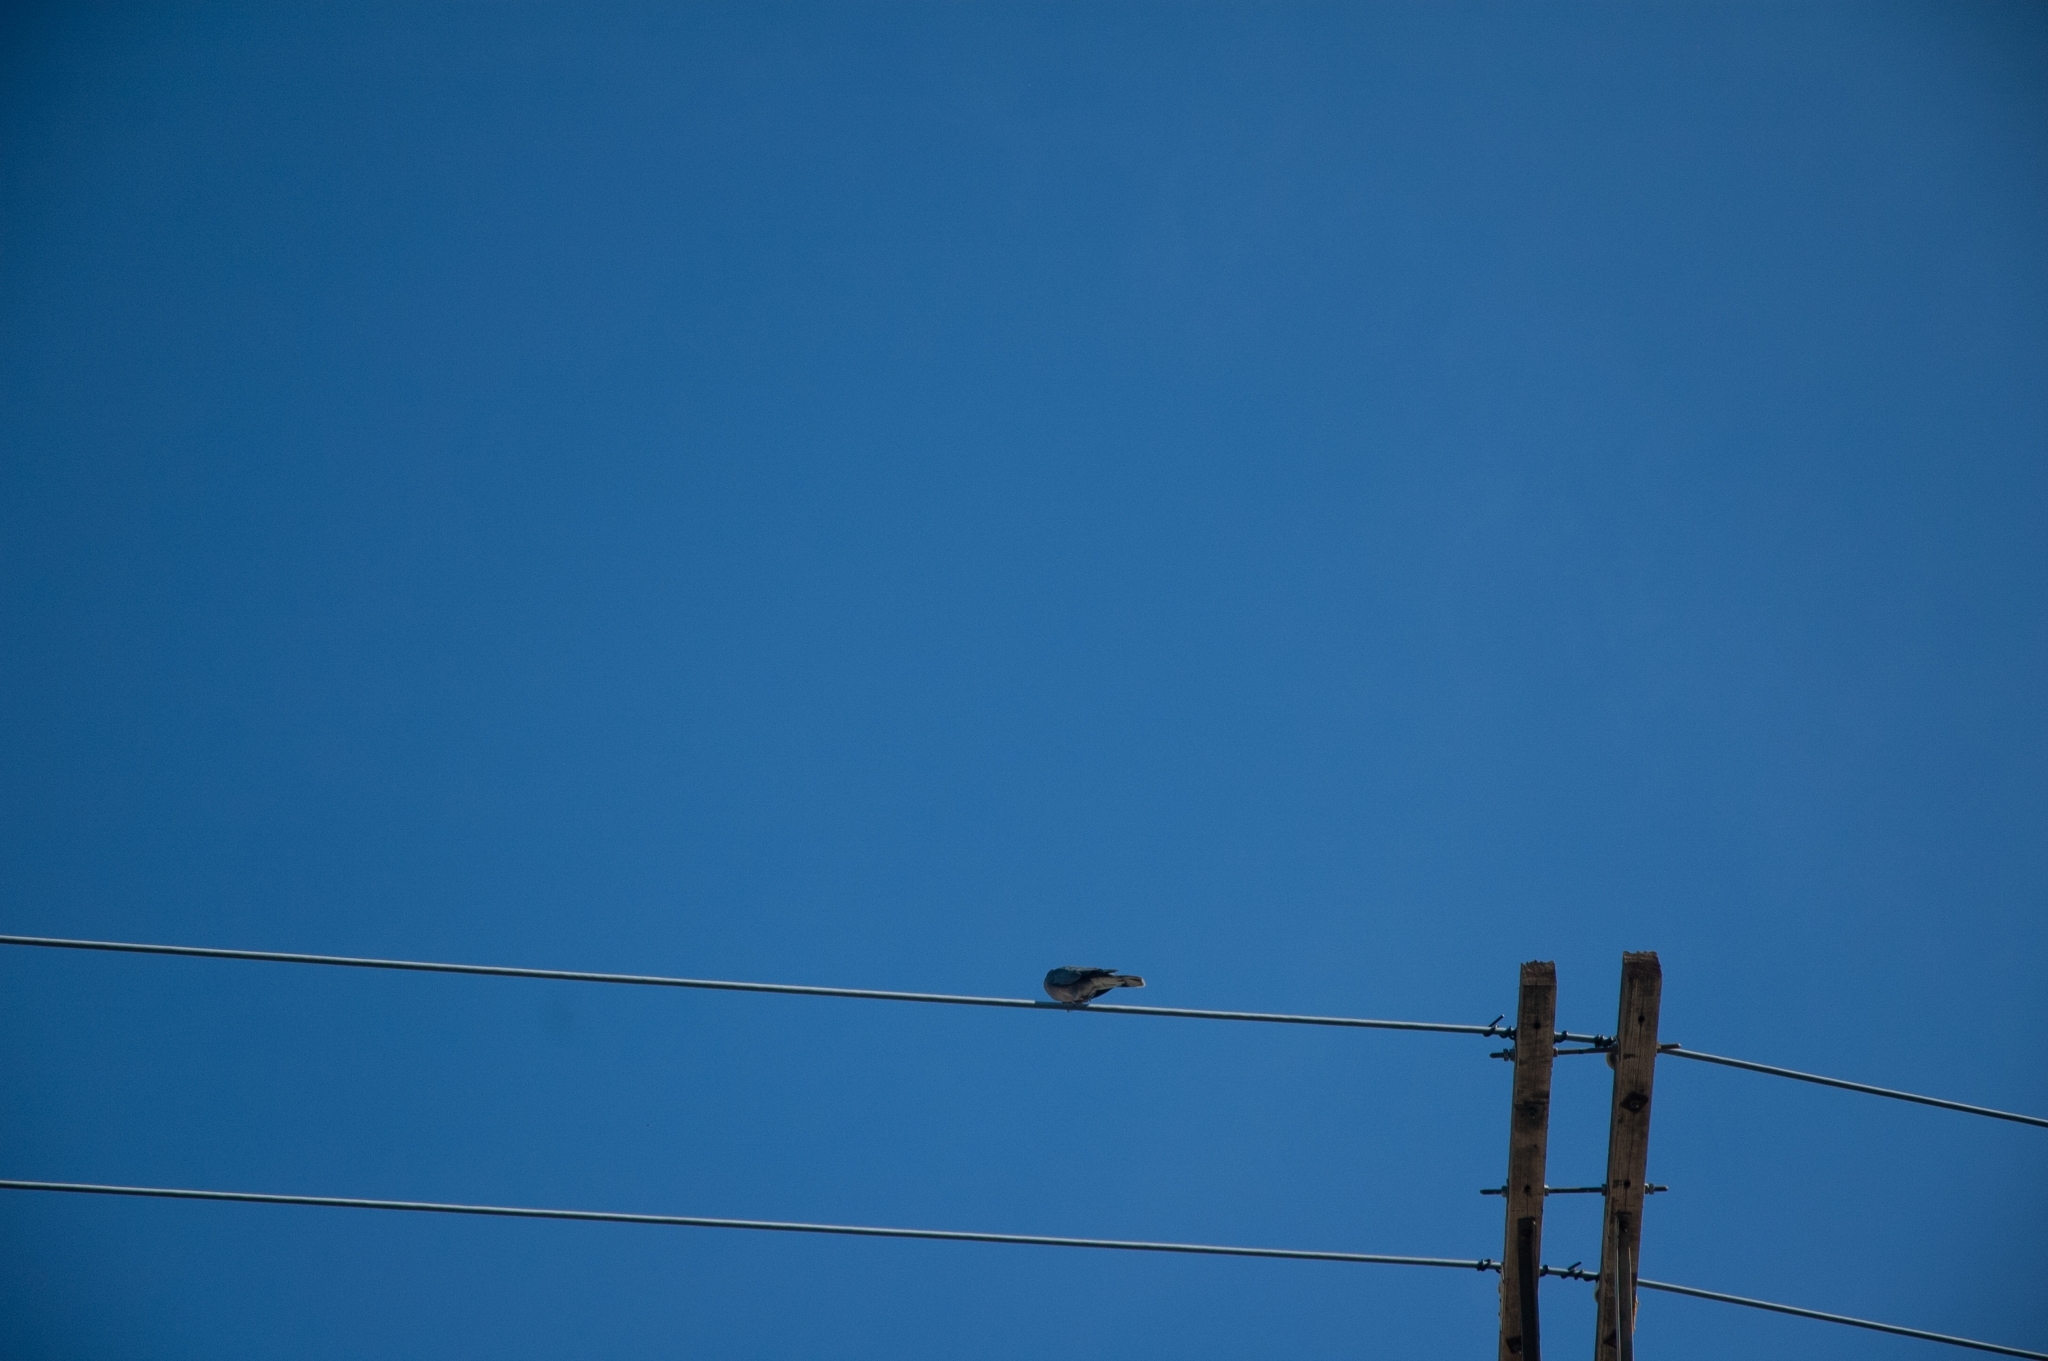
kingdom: Animalia
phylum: Chordata
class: Aves
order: Columbiformes
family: Columbidae
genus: Patagioenas
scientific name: Patagioenas fasciata
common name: Band-tailed pigeon
